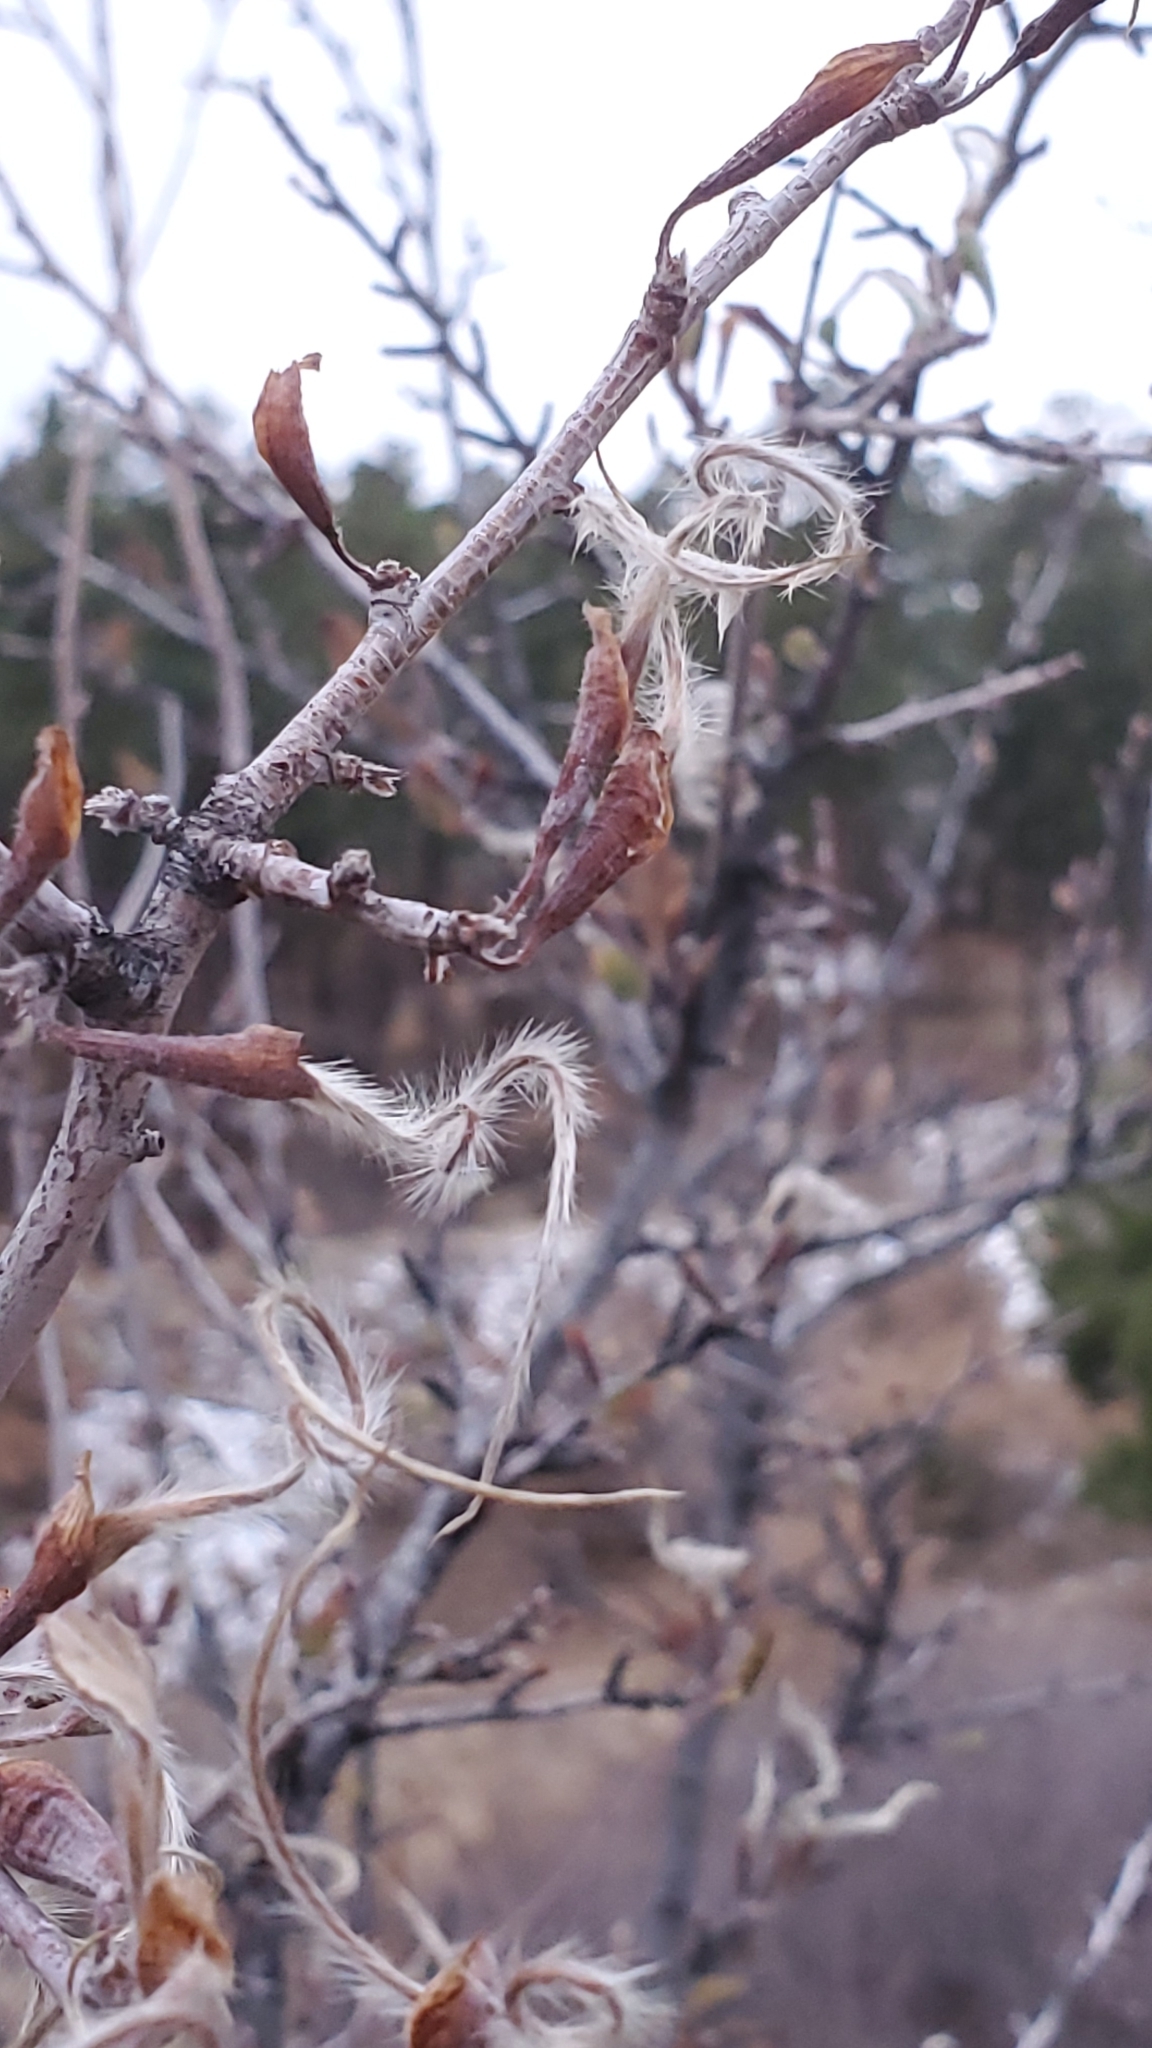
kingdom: Plantae
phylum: Tracheophyta
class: Magnoliopsida
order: Rosales
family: Rosaceae
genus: Cercocarpus
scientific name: Cercocarpus montanus
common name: Alder-leaf cercocarpus
